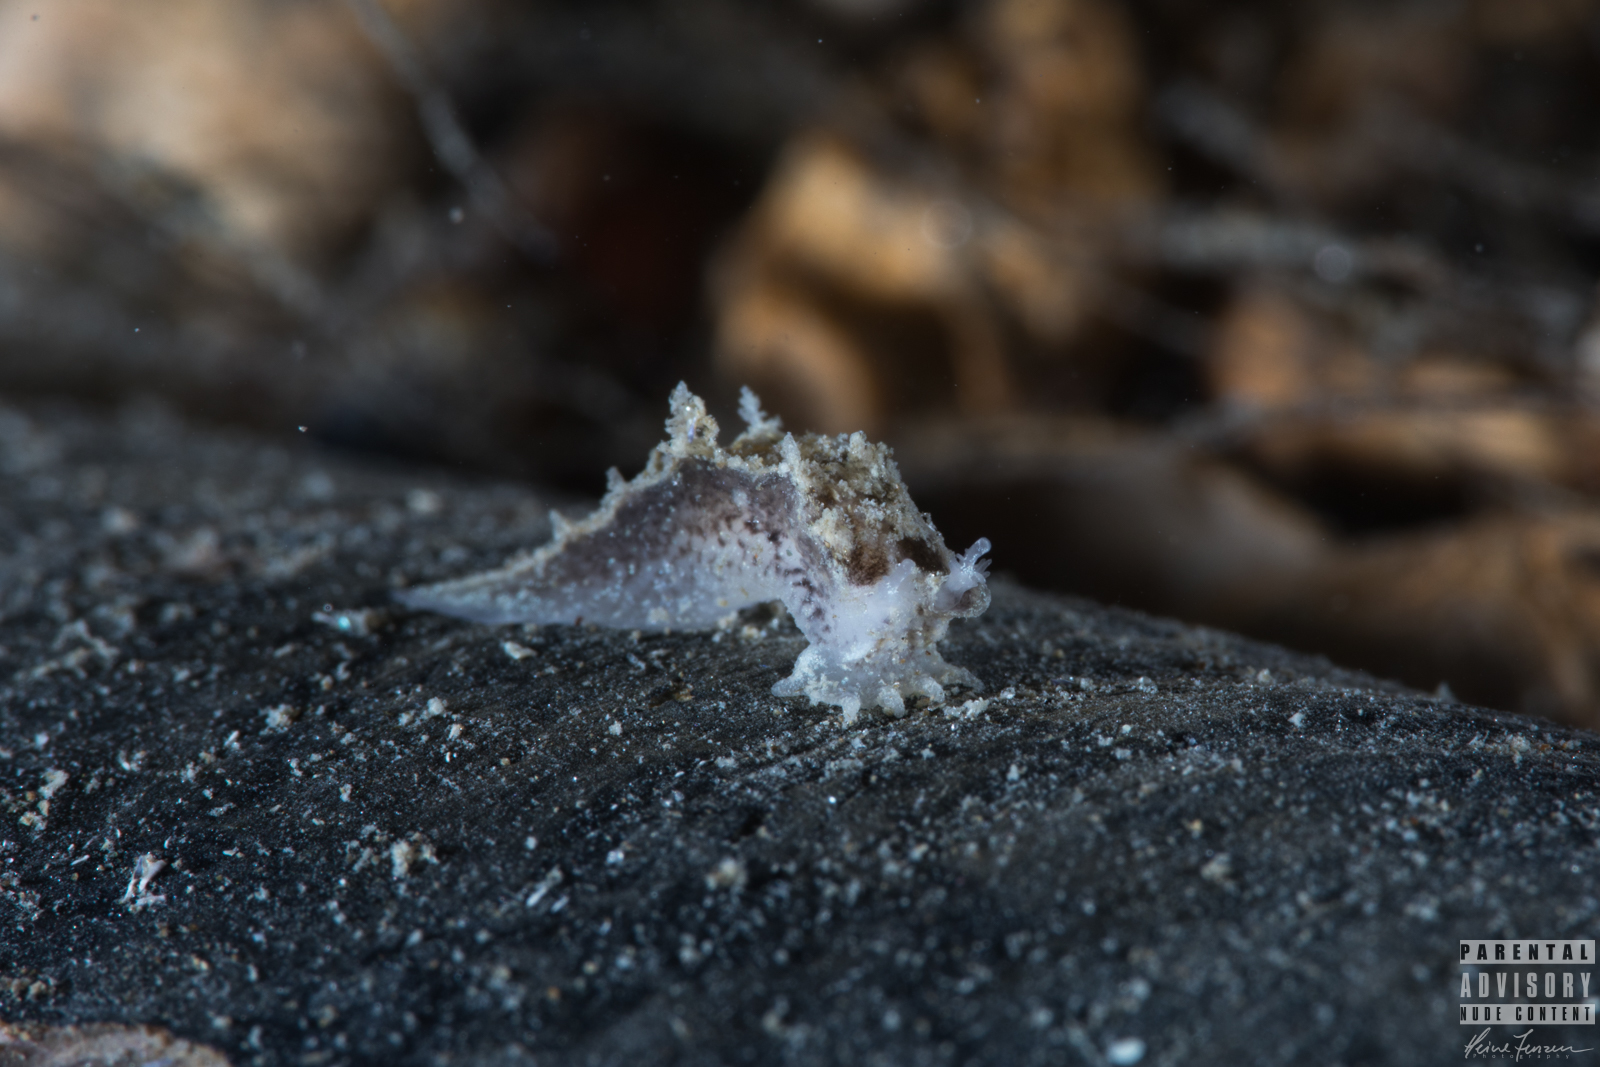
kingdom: Animalia
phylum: Mollusca
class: Gastropoda
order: Nudibranchia
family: Tritoniidae
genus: Duvaucelia
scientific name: Duvaucelia plebeia
